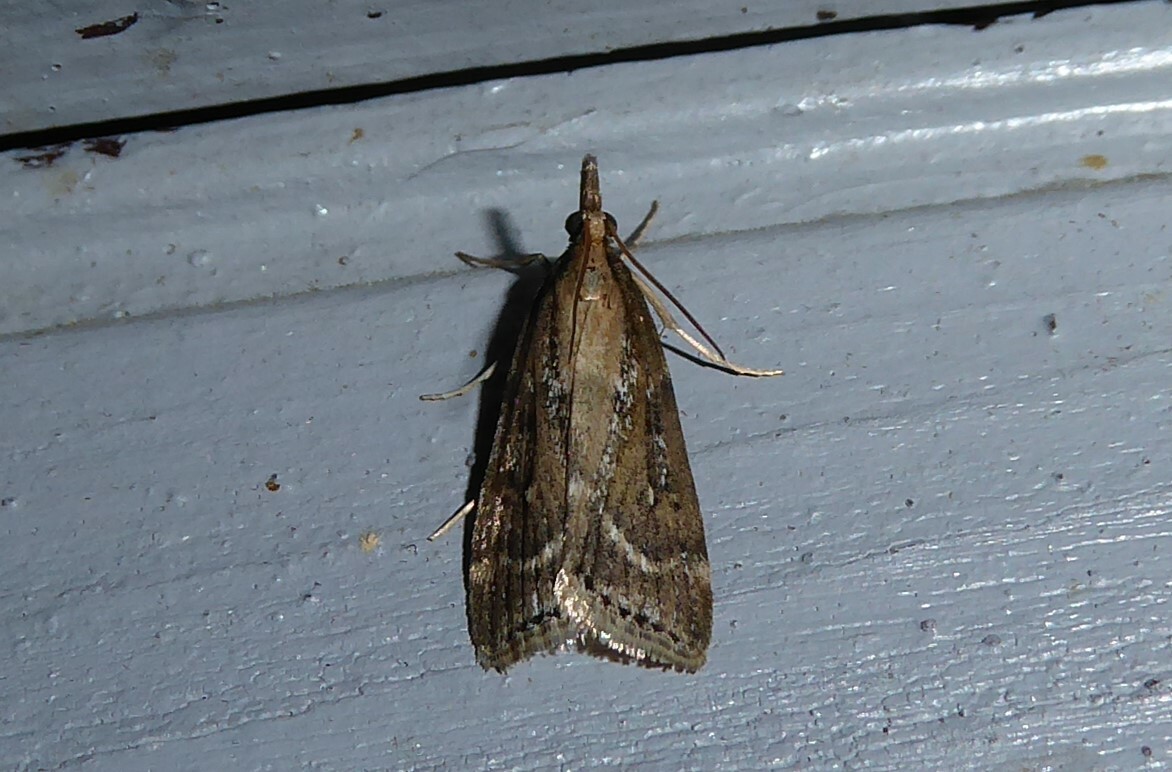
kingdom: Animalia
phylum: Arthropoda
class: Insecta
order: Lepidoptera
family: Crambidae
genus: Eudonia
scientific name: Eudonia octophora
